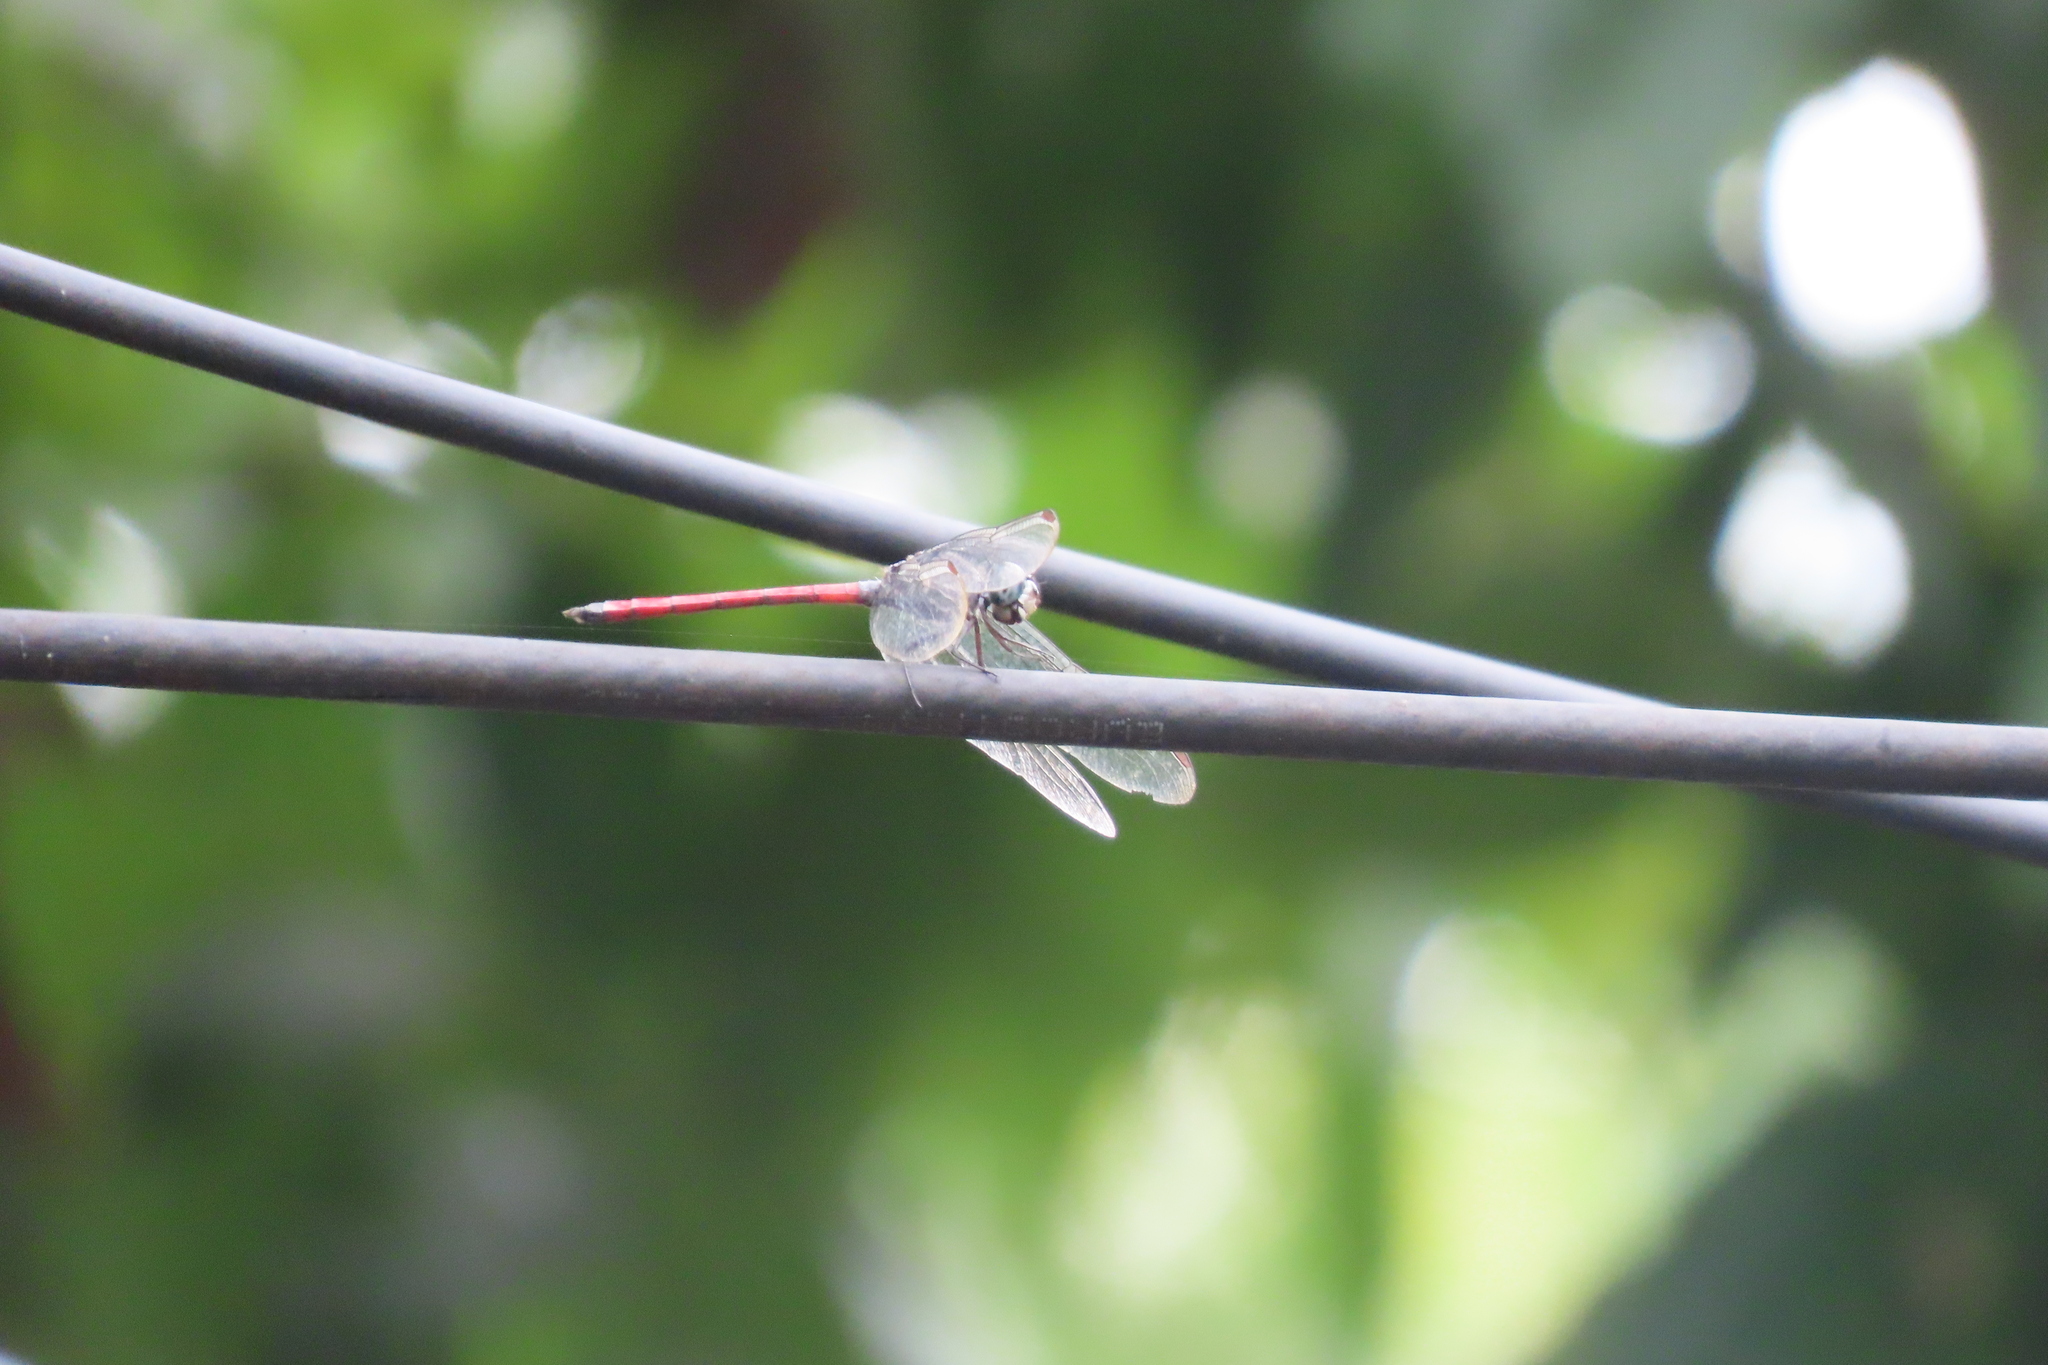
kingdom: Animalia
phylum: Arthropoda
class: Insecta
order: Odonata
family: Libellulidae
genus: Lathrecista
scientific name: Lathrecista asiatica
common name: Scarlet grenadier
